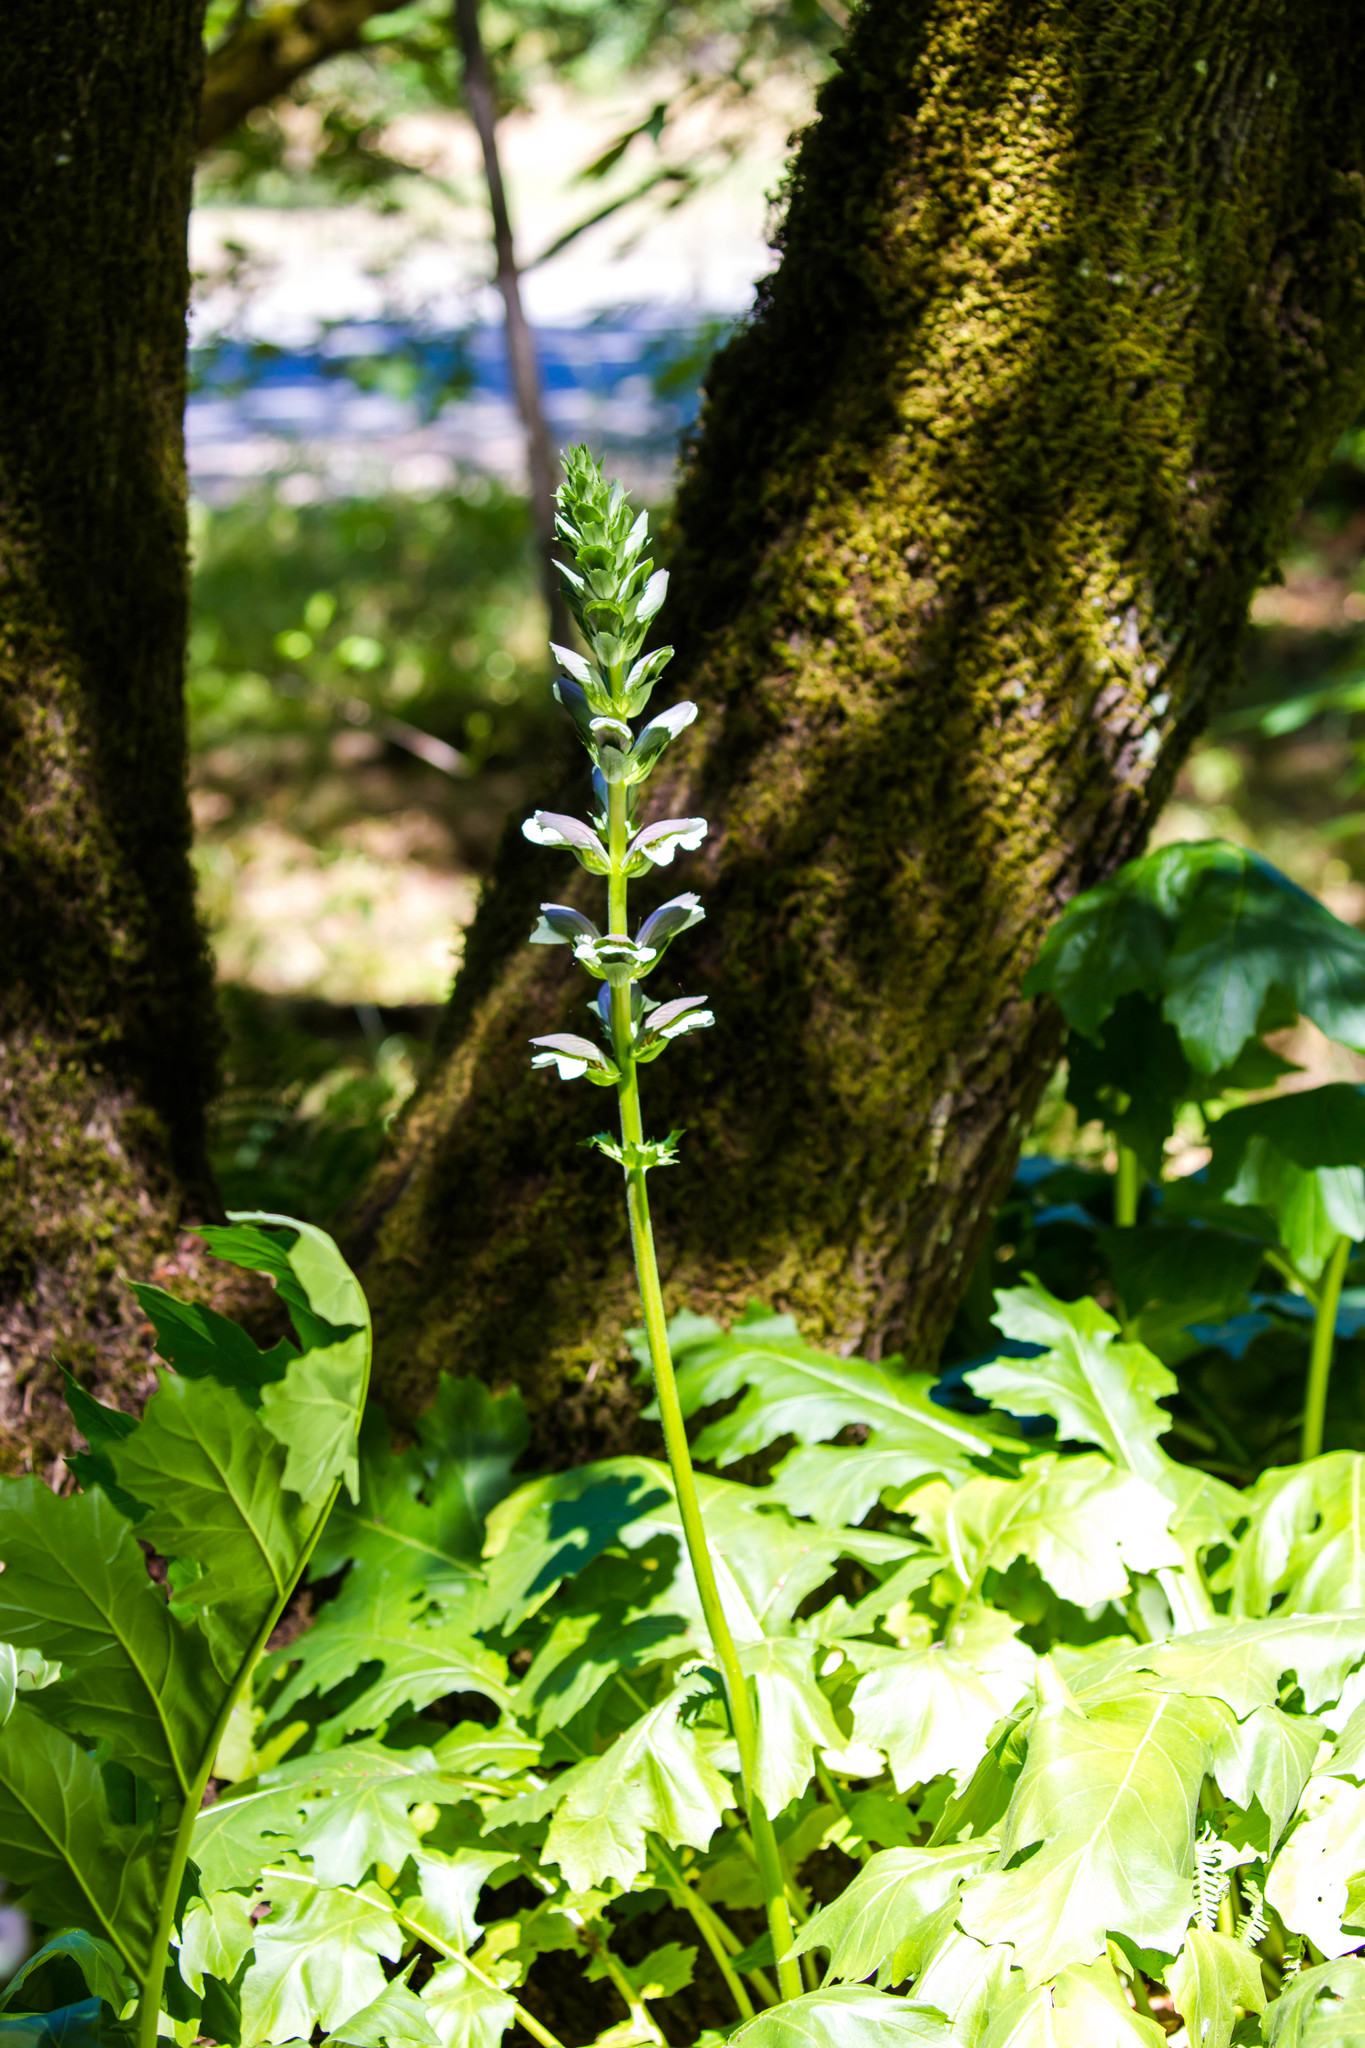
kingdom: Plantae
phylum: Tracheophyta
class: Magnoliopsida
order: Lamiales
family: Acanthaceae
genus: Acanthus
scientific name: Acanthus mollis
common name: Bear's-breech
